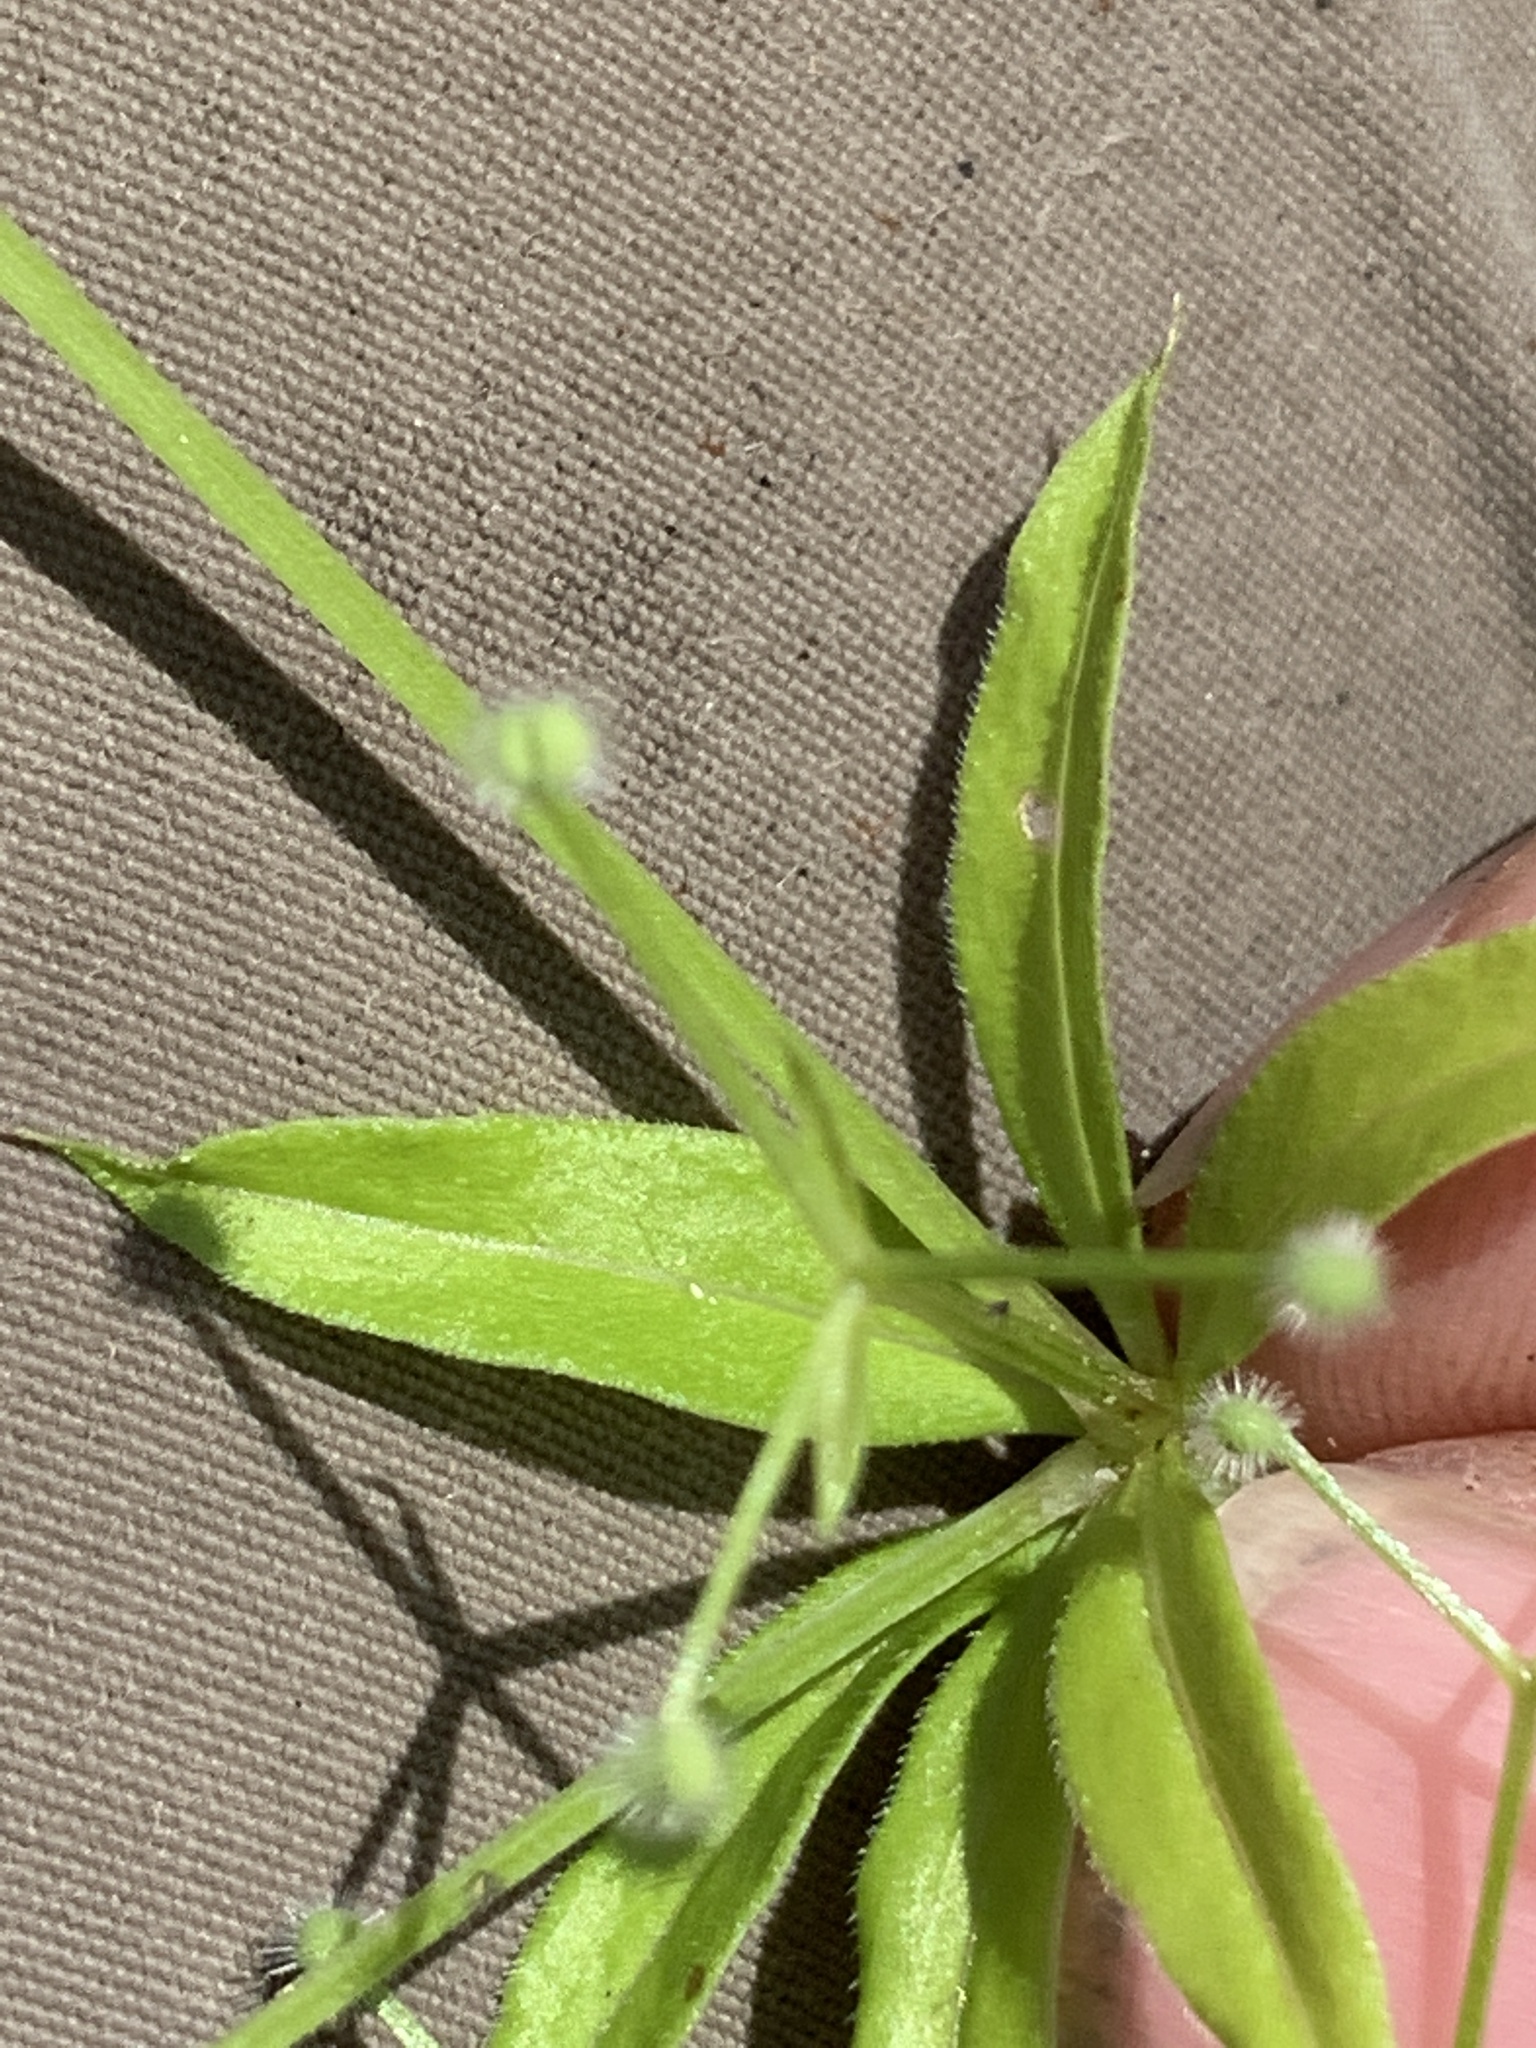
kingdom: Plantae
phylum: Tracheophyta
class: Magnoliopsida
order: Gentianales
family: Rubiaceae
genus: Galium
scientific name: Galium triflorum
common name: Fragrant bedstraw
